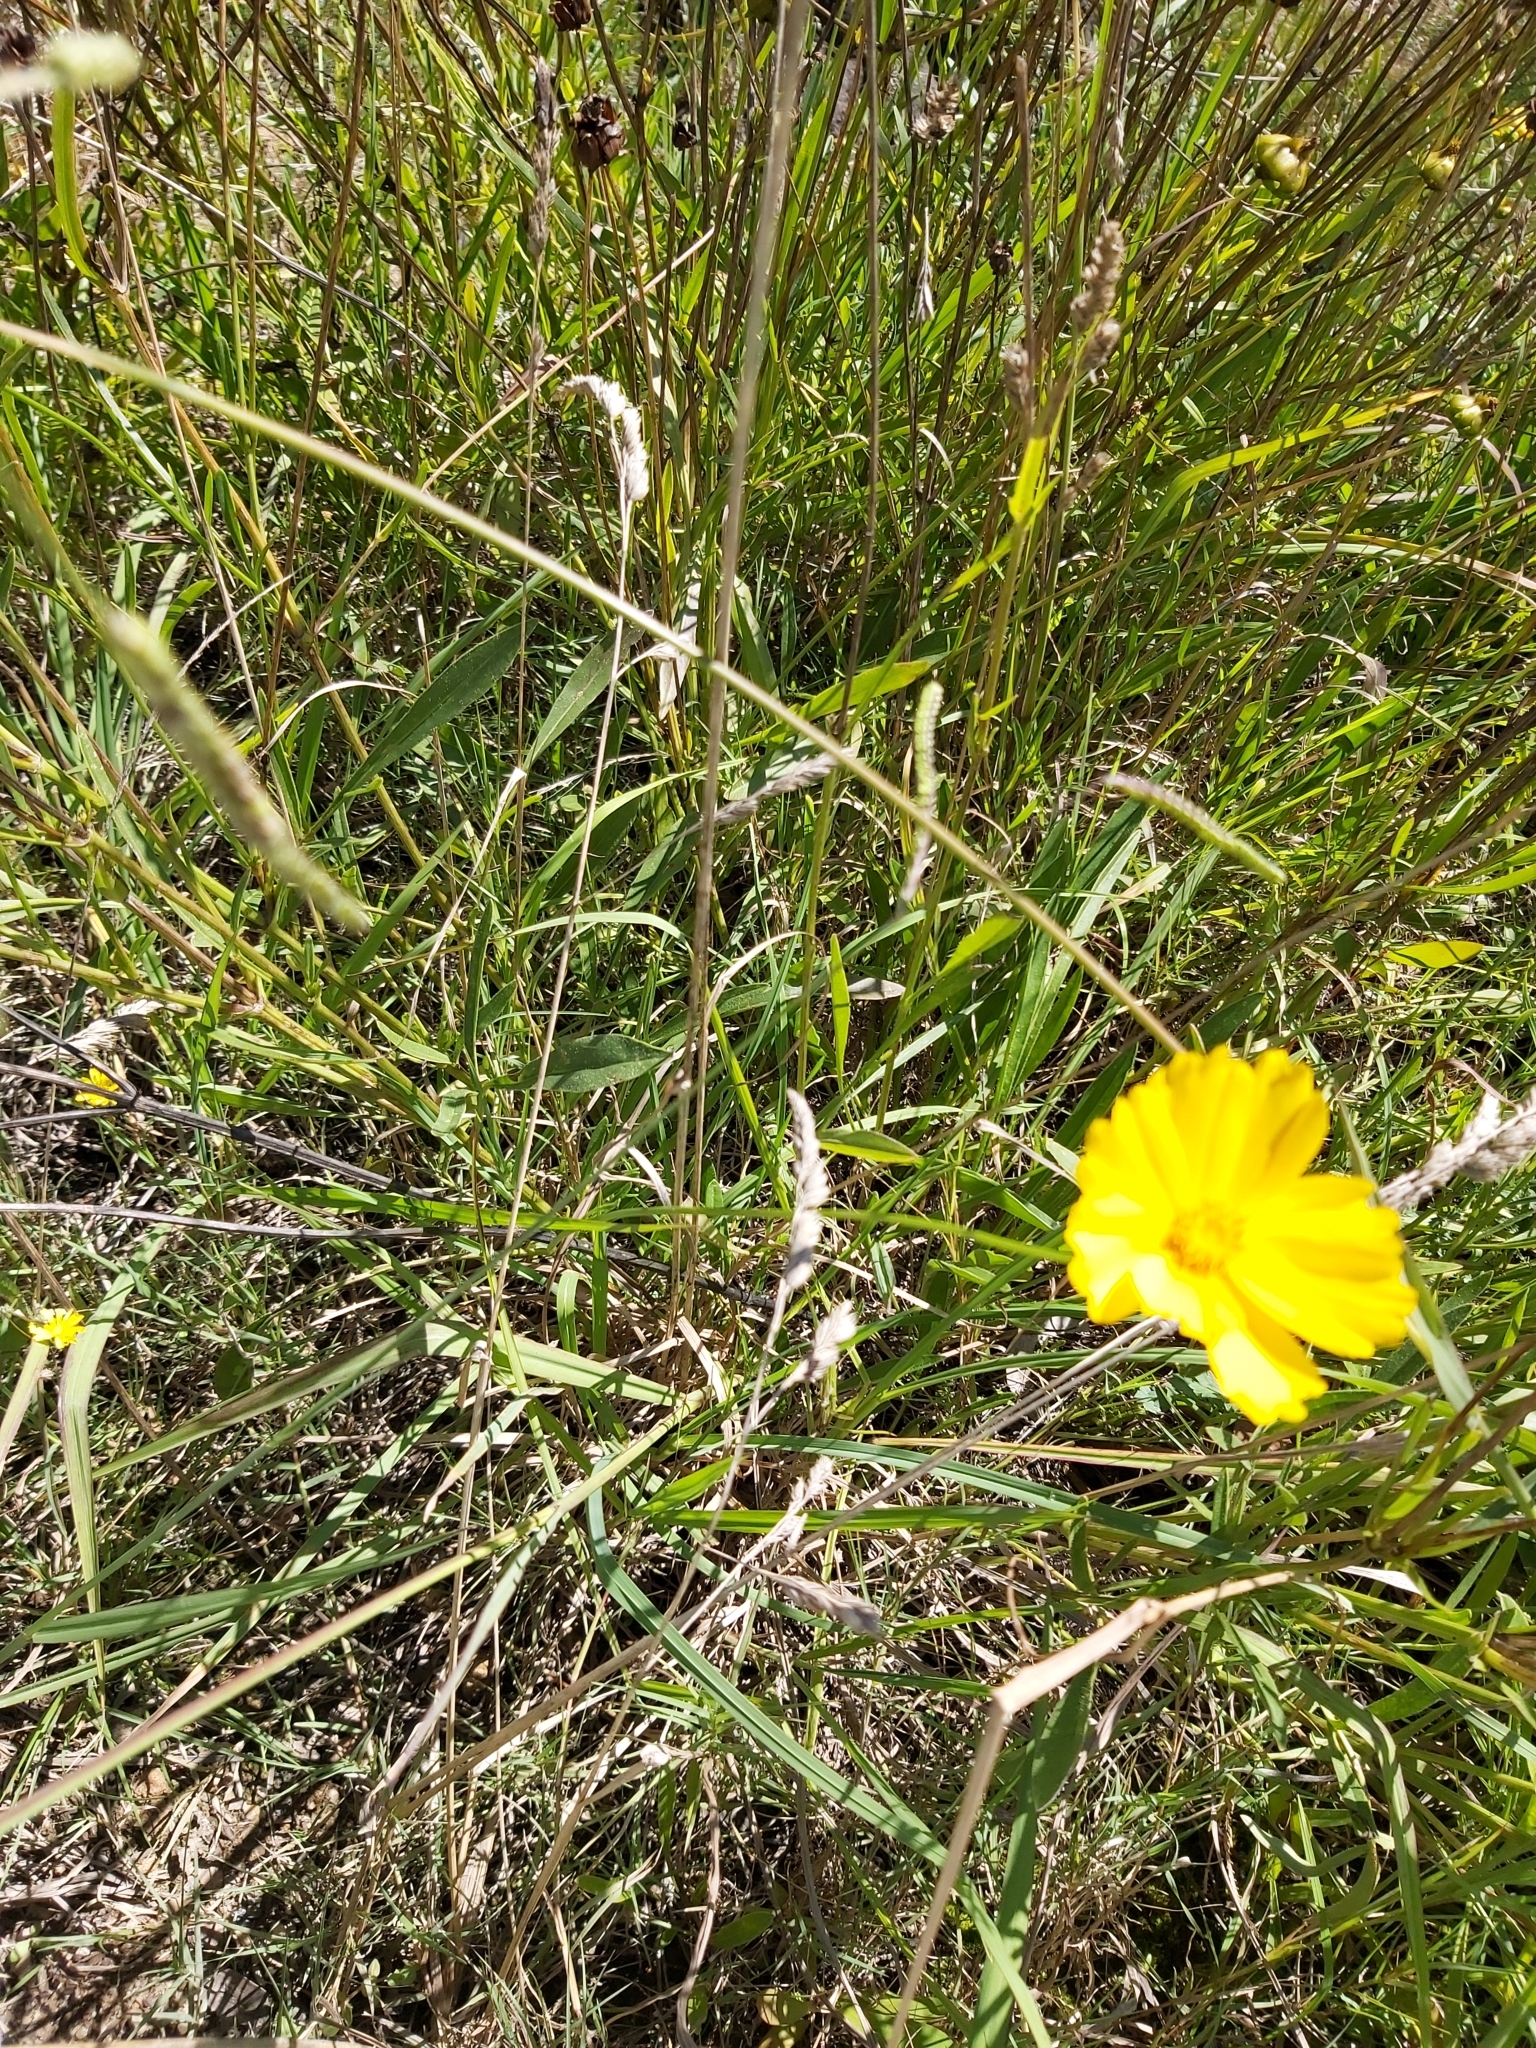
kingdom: Plantae
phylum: Tracheophyta
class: Magnoliopsida
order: Asterales
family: Asteraceae
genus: Coreopsis
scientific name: Coreopsis lanceolata
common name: Garden coreopsis
